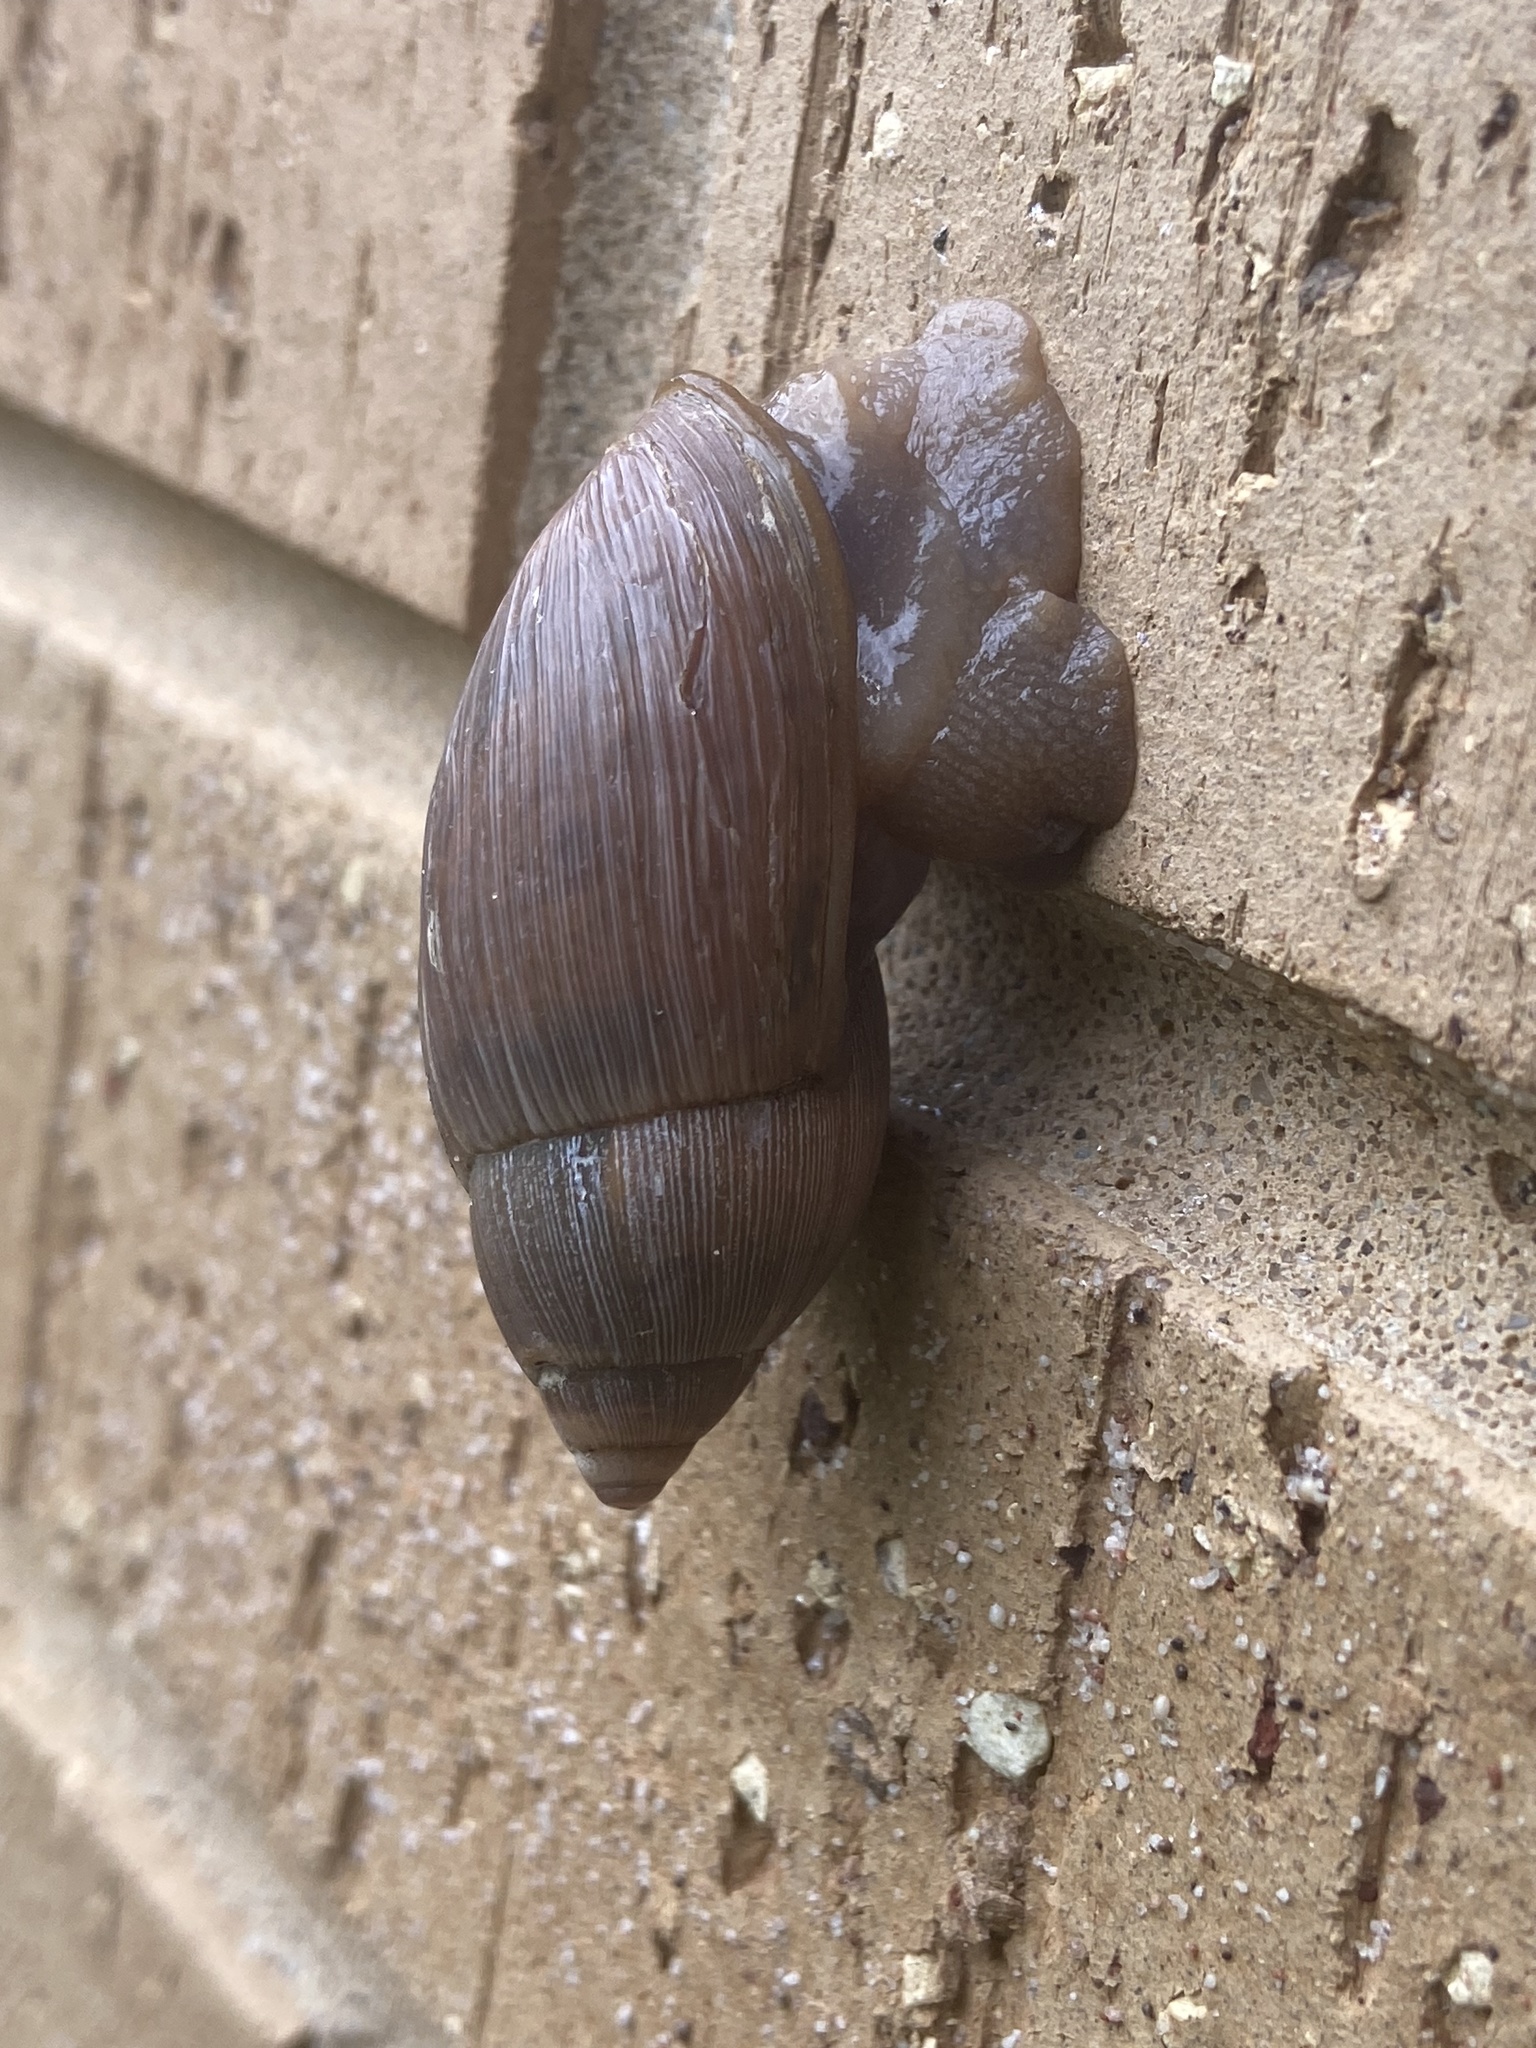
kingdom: Animalia
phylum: Mollusca
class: Gastropoda
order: Stylommatophora
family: Spiraxidae
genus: Euglandina
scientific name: Euglandina rosea
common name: Rosy wolfsnail
